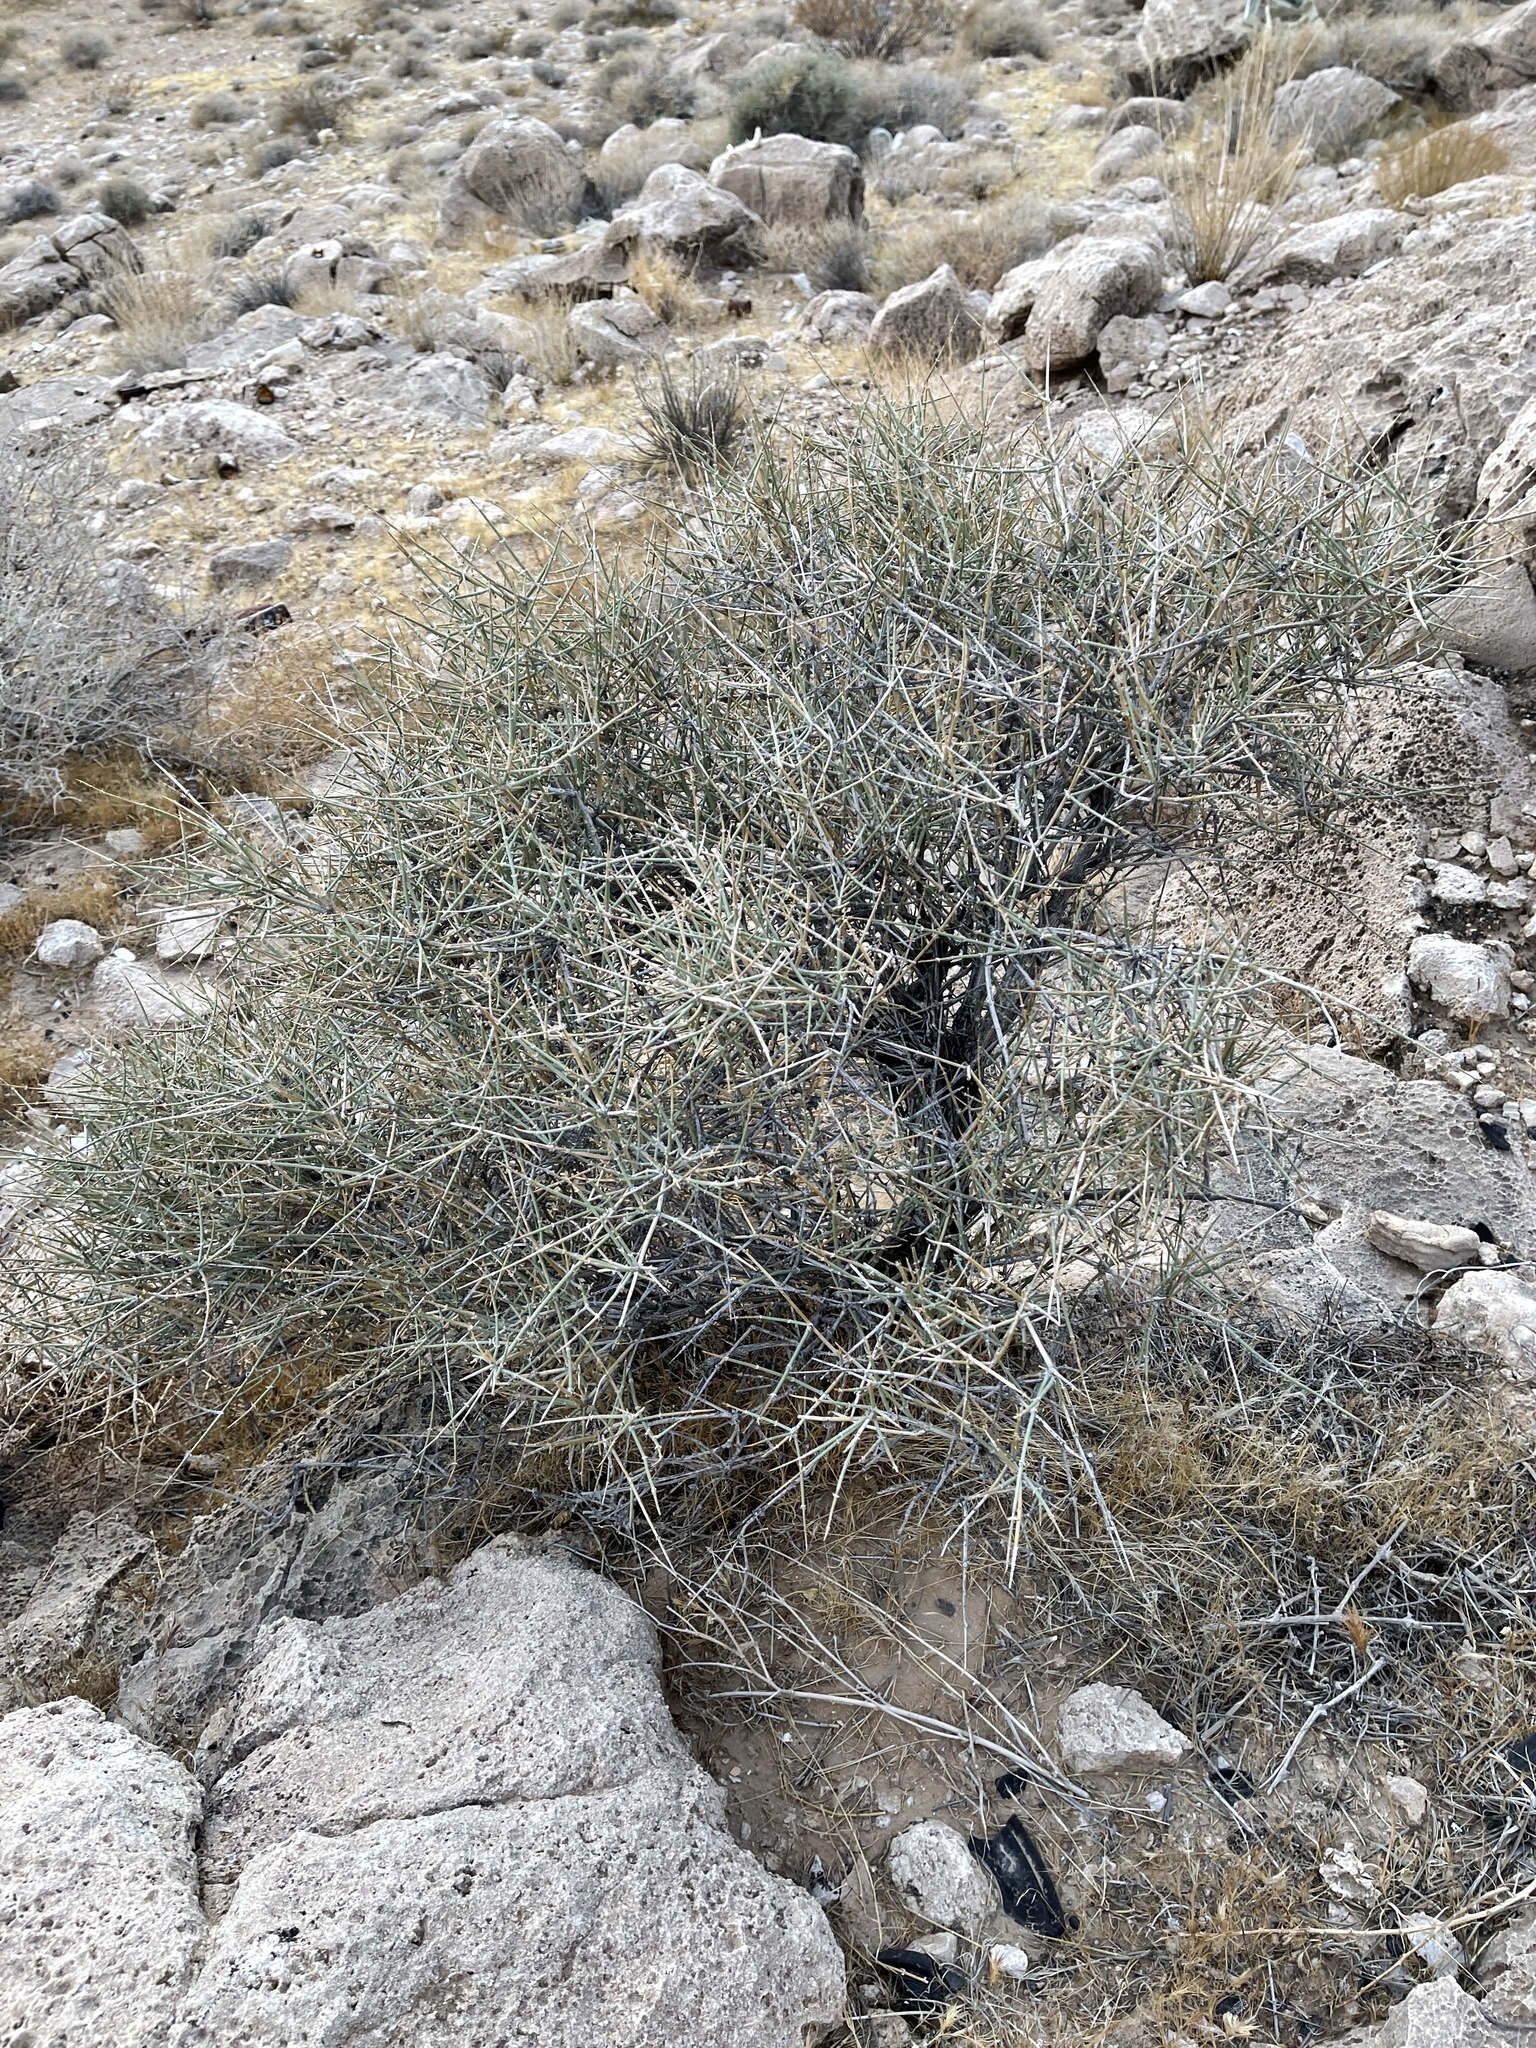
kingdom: Plantae
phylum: Tracheophyta
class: Gnetopsida
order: Ephedrales
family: Ephedraceae
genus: Ephedra
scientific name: Ephedra nevadensis
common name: Gray ephedra
